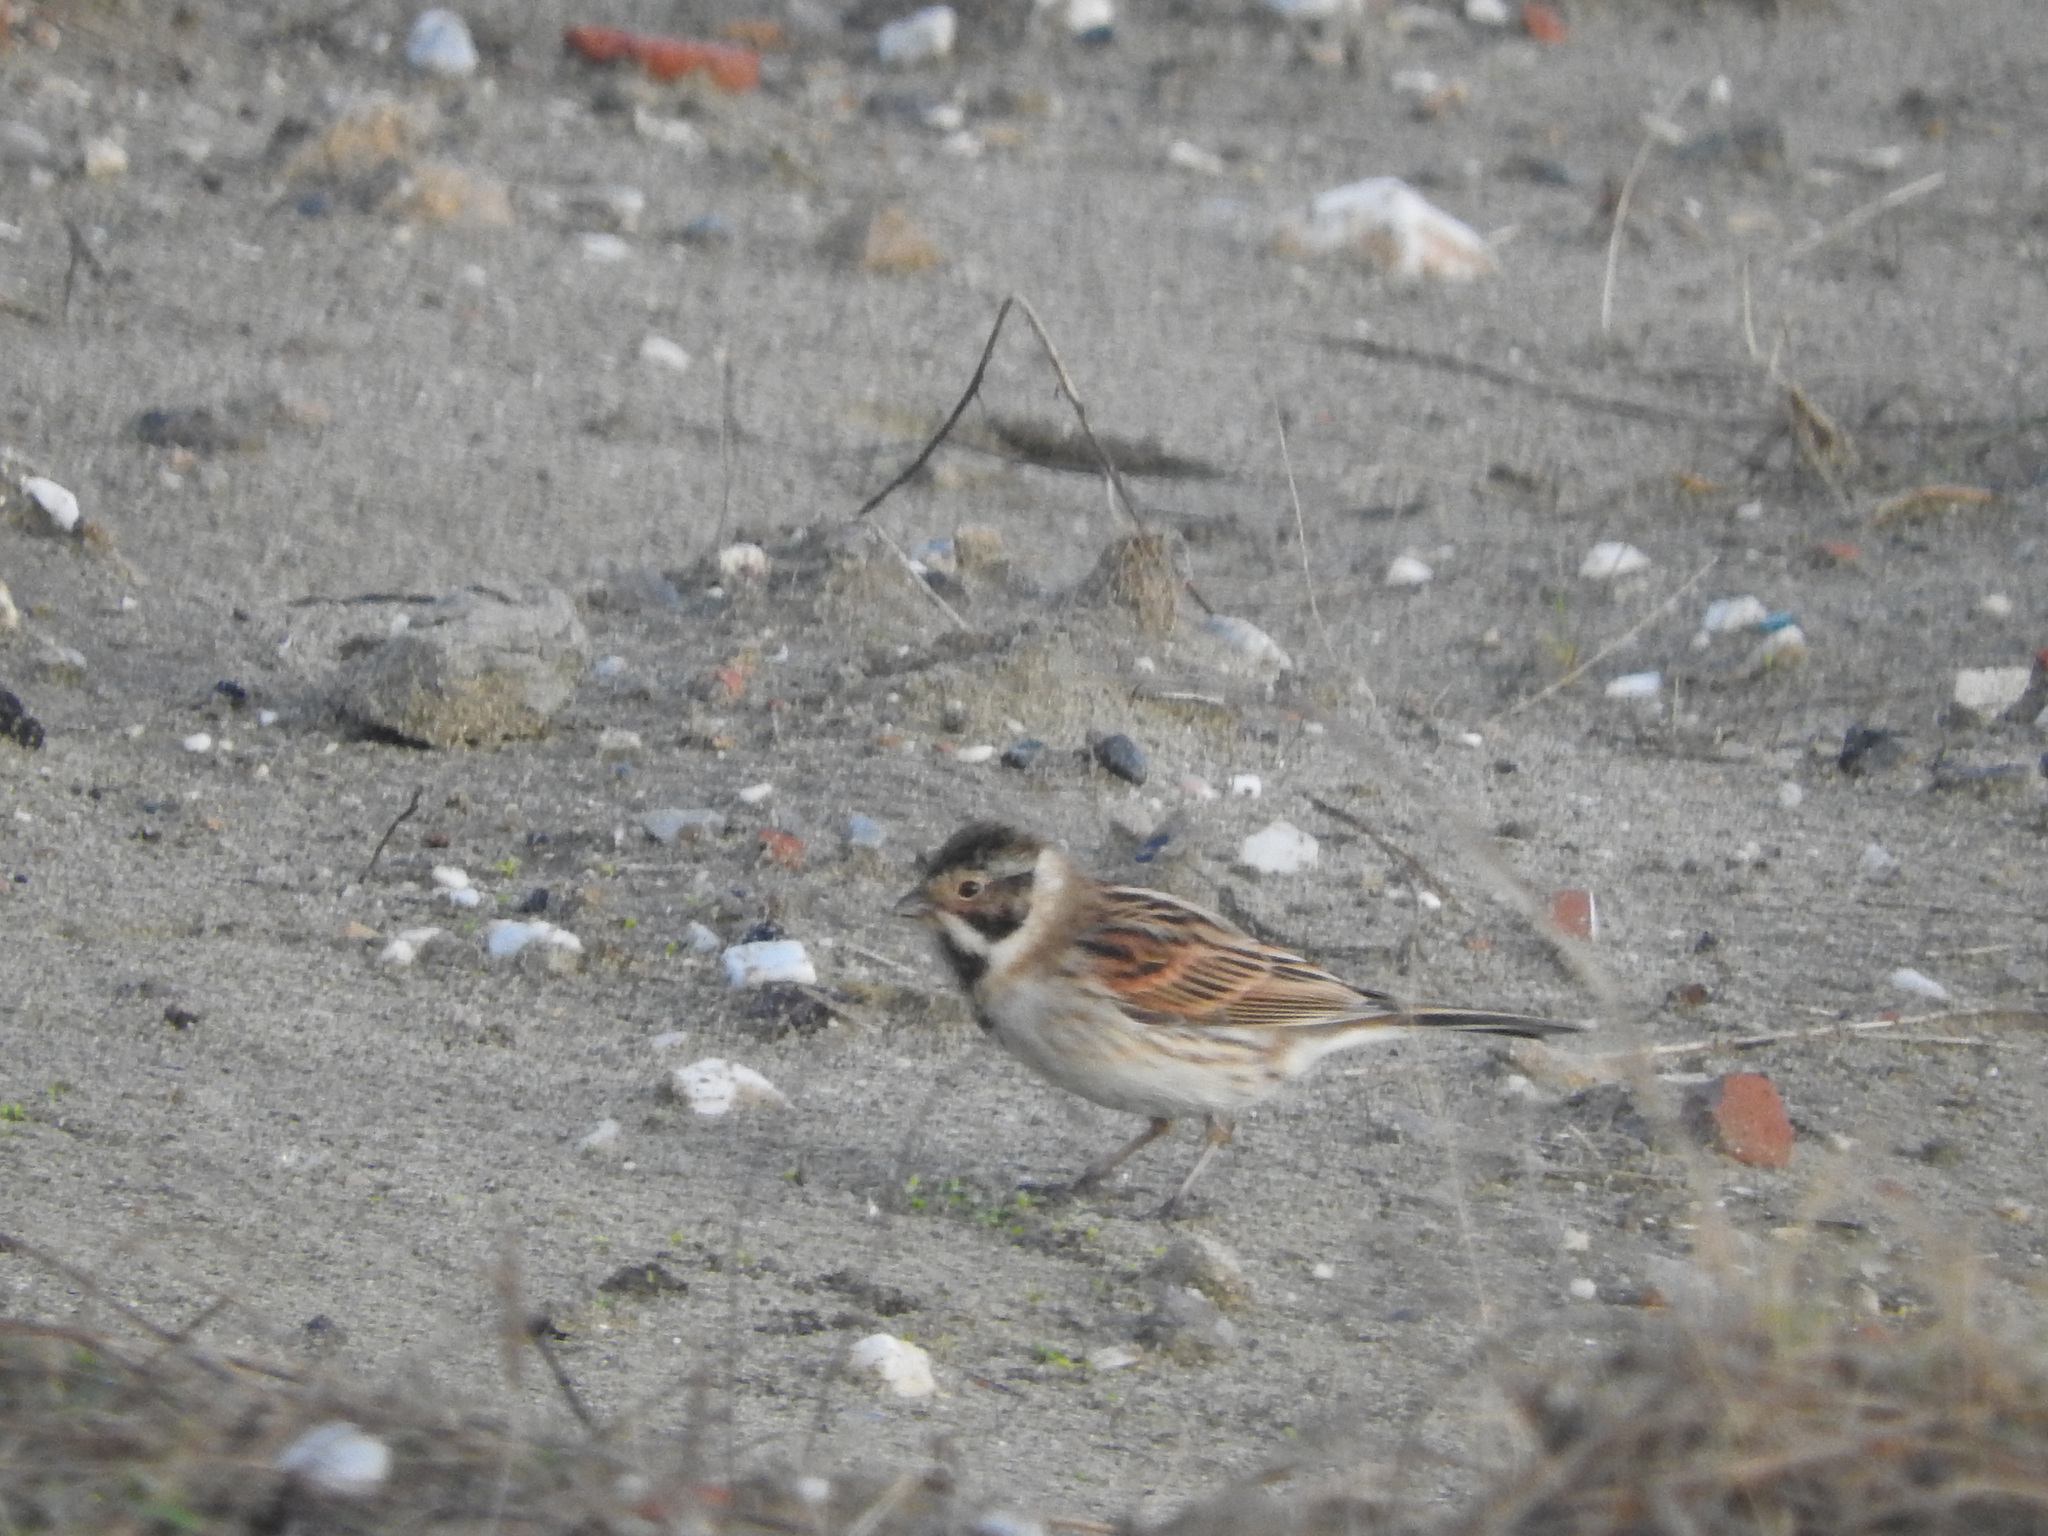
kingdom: Animalia
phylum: Chordata
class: Aves
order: Passeriformes
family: Emberizidae
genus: Emberiza
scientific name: Emberiza schoeniclus
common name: Reed bunting
